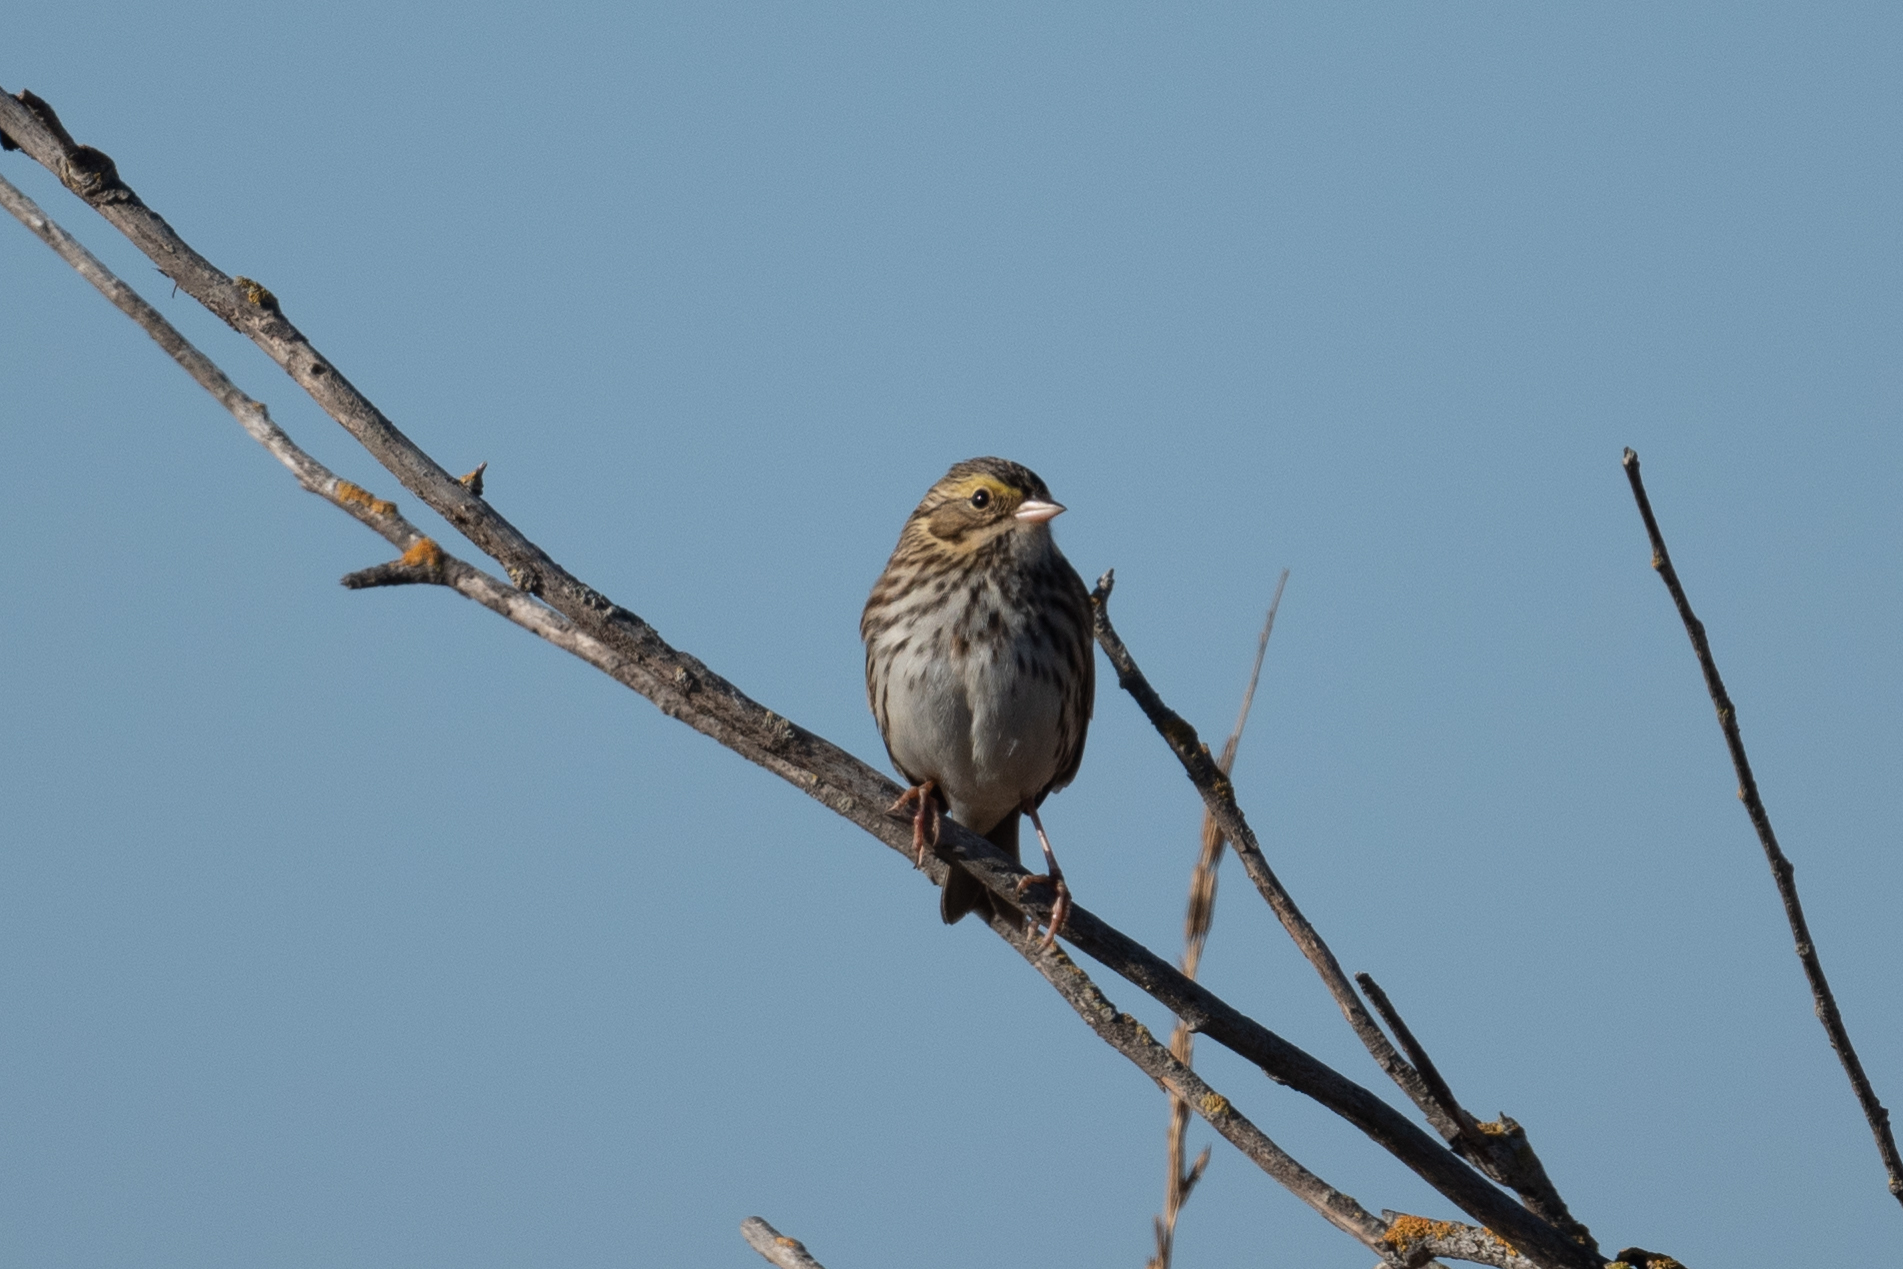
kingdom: Animalia
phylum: Chordata
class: Aves
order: Passeriformes
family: Passerellidae
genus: Passerculus
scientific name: Passerculus sandwichensis
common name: Savannah sparrow
